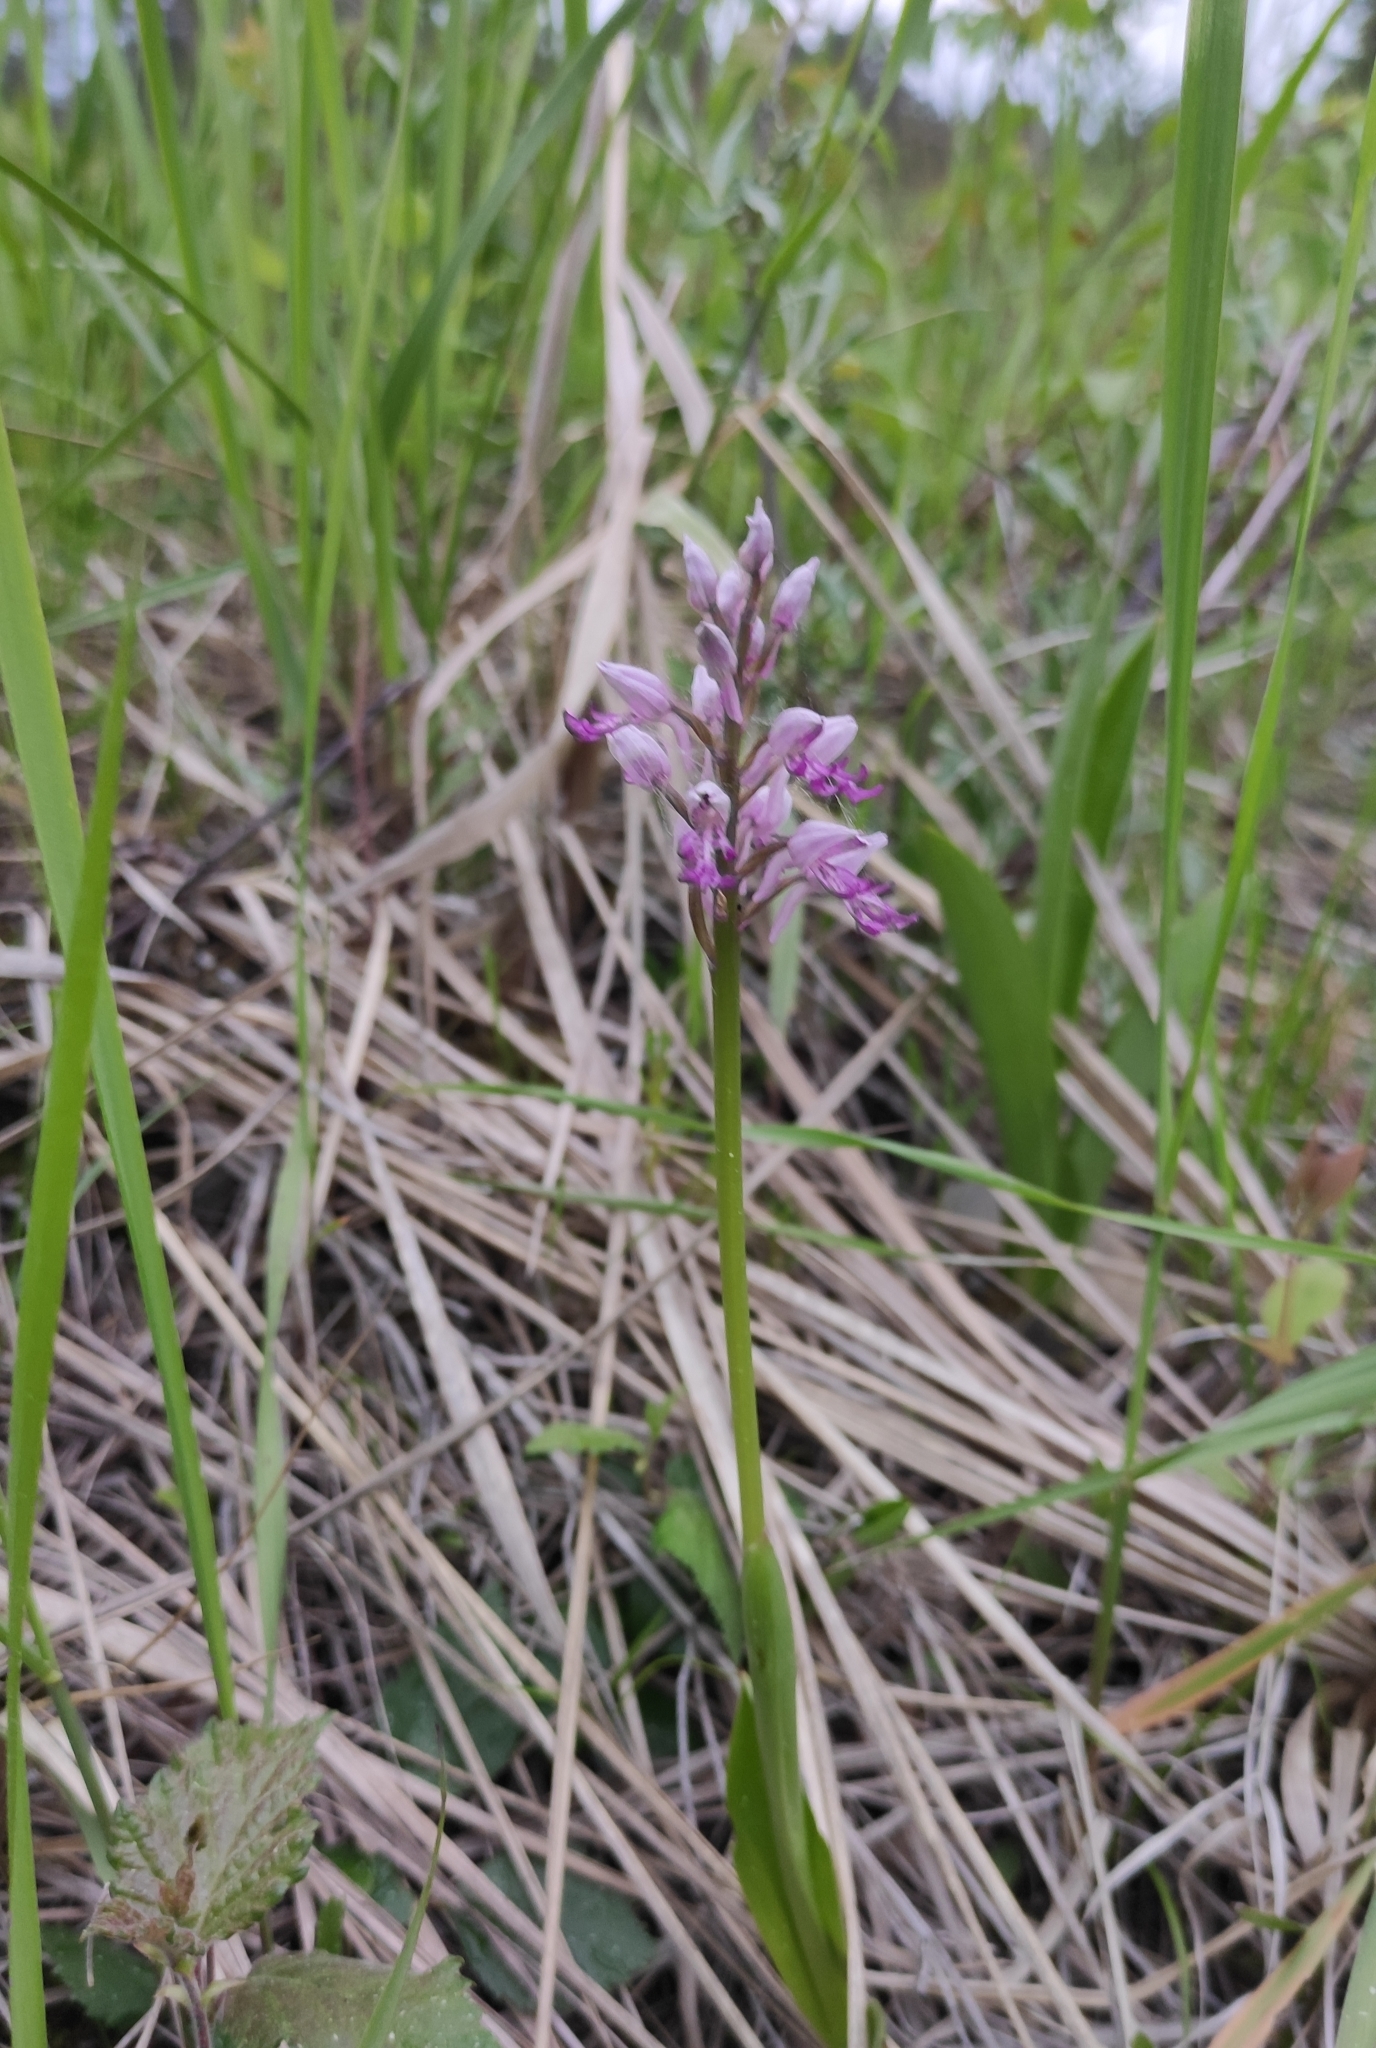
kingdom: Plantae
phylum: Tracheophyta
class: Liliopsida
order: Asparagales
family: Orchidaceae
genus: Orchis
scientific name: Orchis militaris
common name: Military orchid
